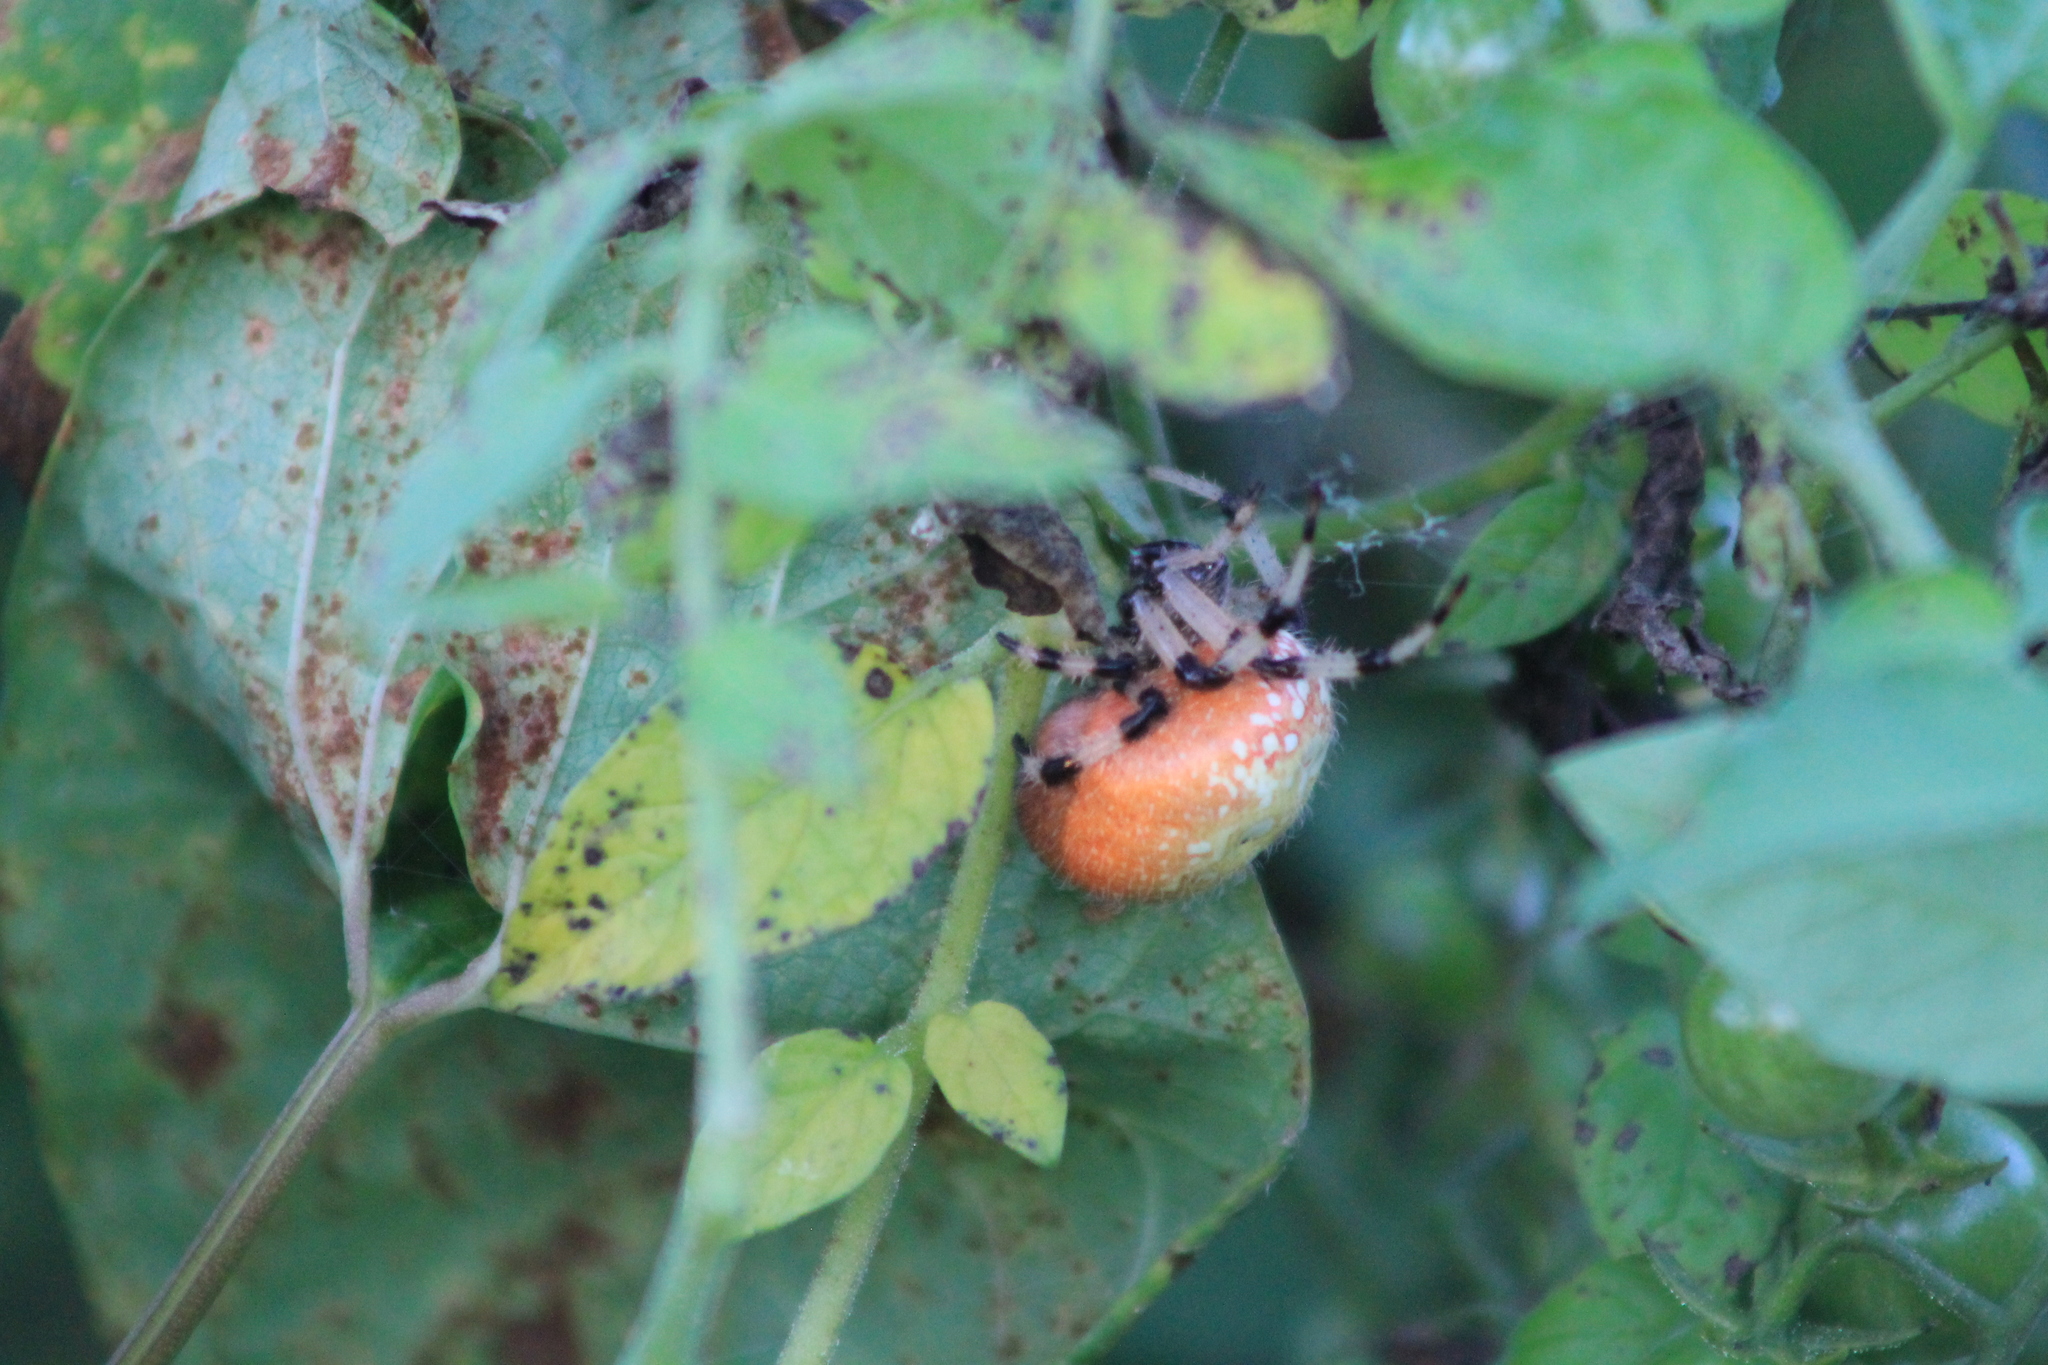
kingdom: Animalia
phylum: Arthropoda
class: Arachnida
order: Araneae
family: Araneidae
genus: Araneus
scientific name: Araneus trifolium
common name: Shamrock orbweaver
